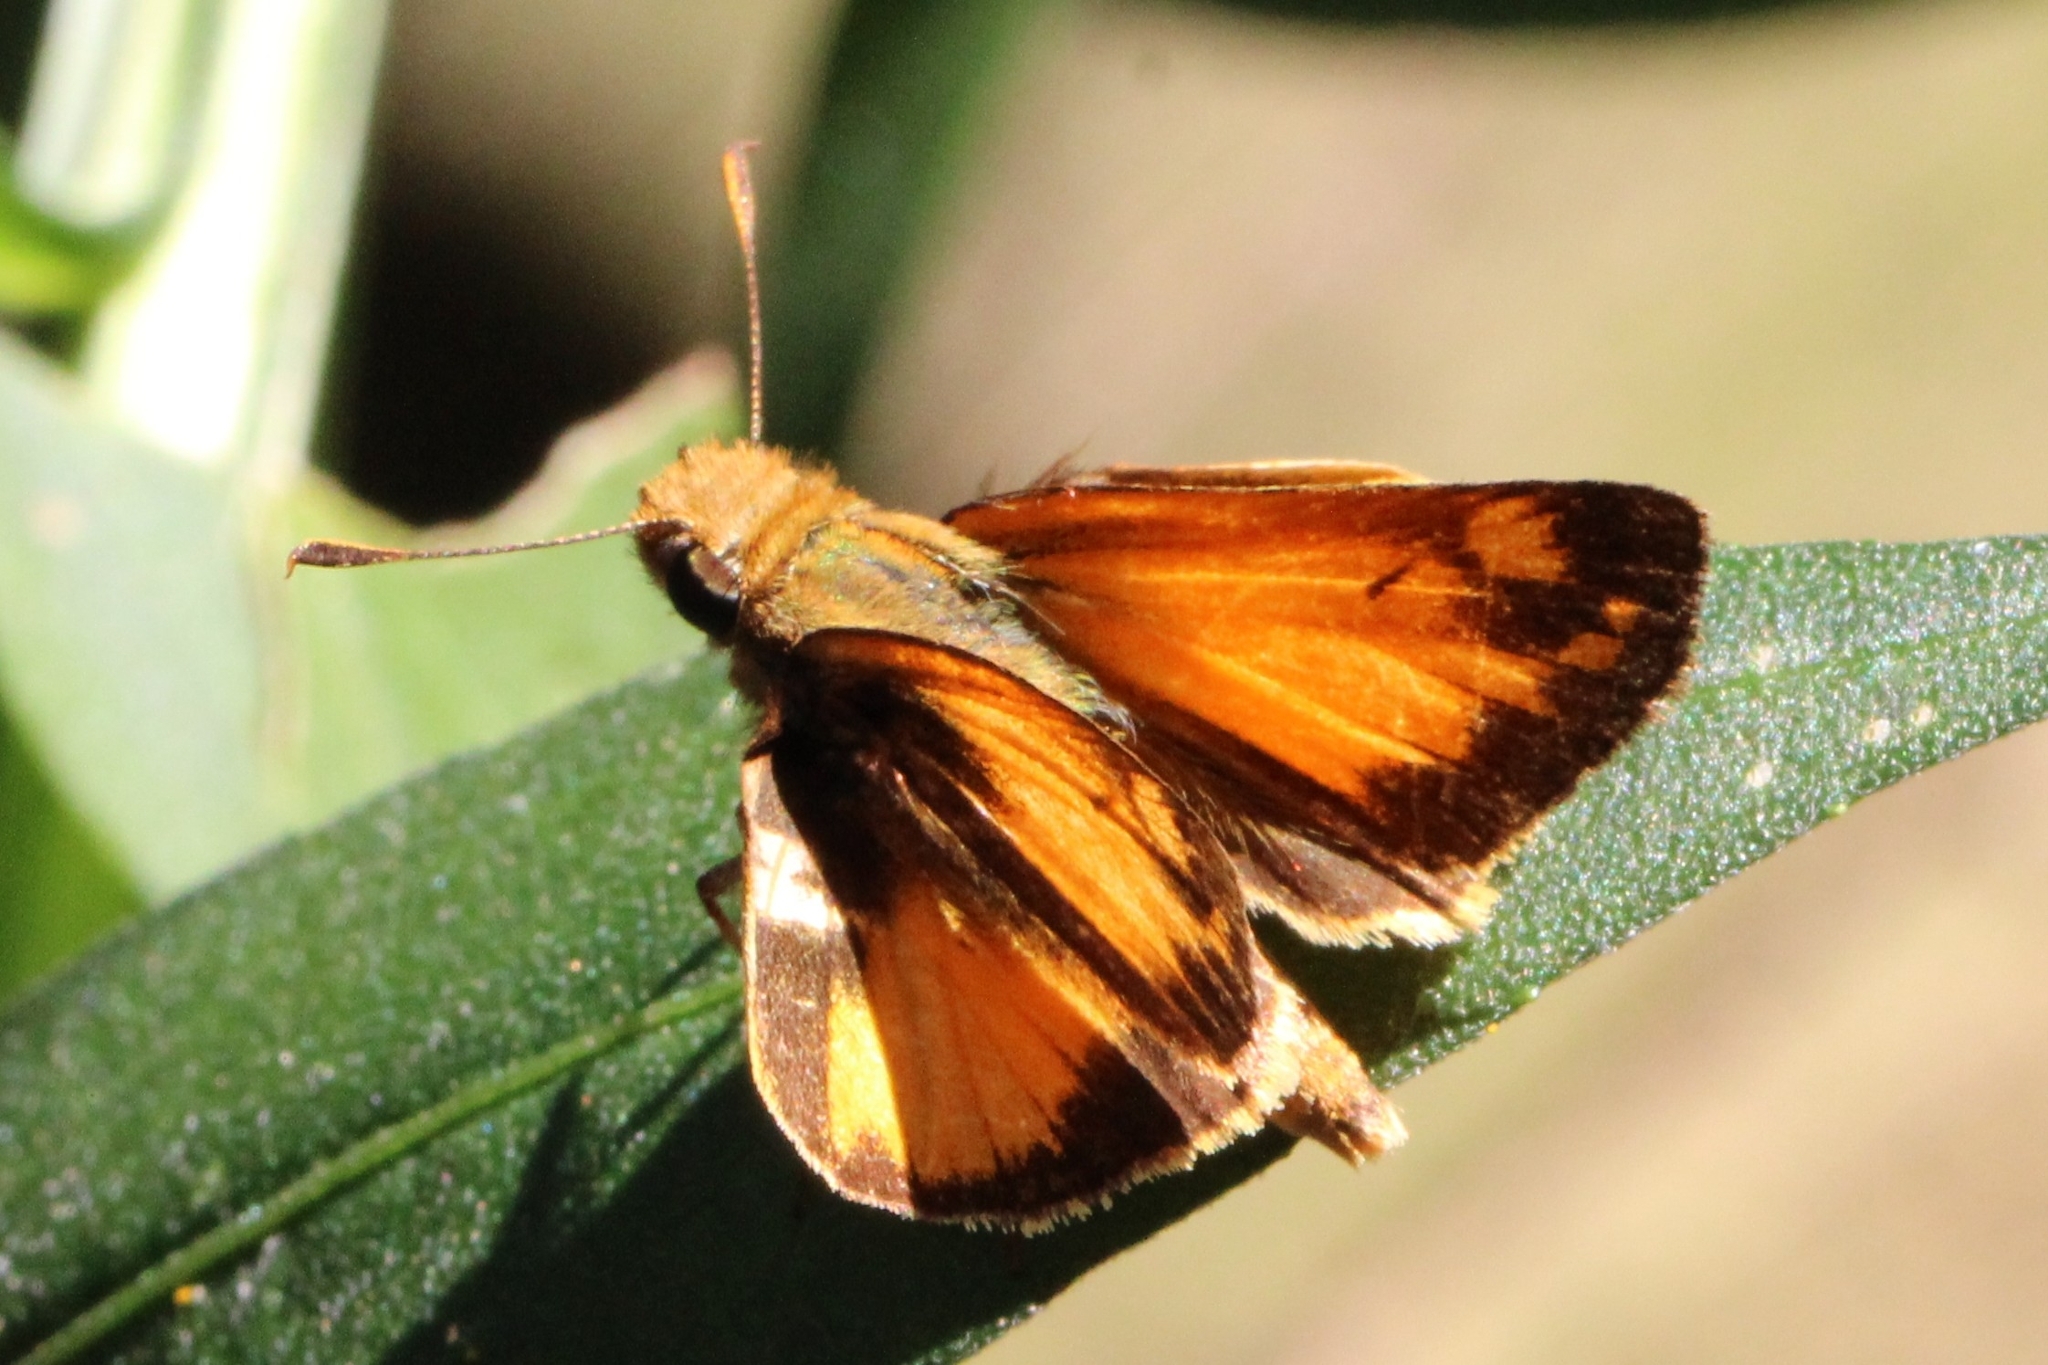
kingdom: Animalia
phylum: Arthropoda
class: Insecta
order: Lepidoptera
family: Hesperiidae
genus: Lon
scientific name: Lon zabulon
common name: Zabulon skipper
